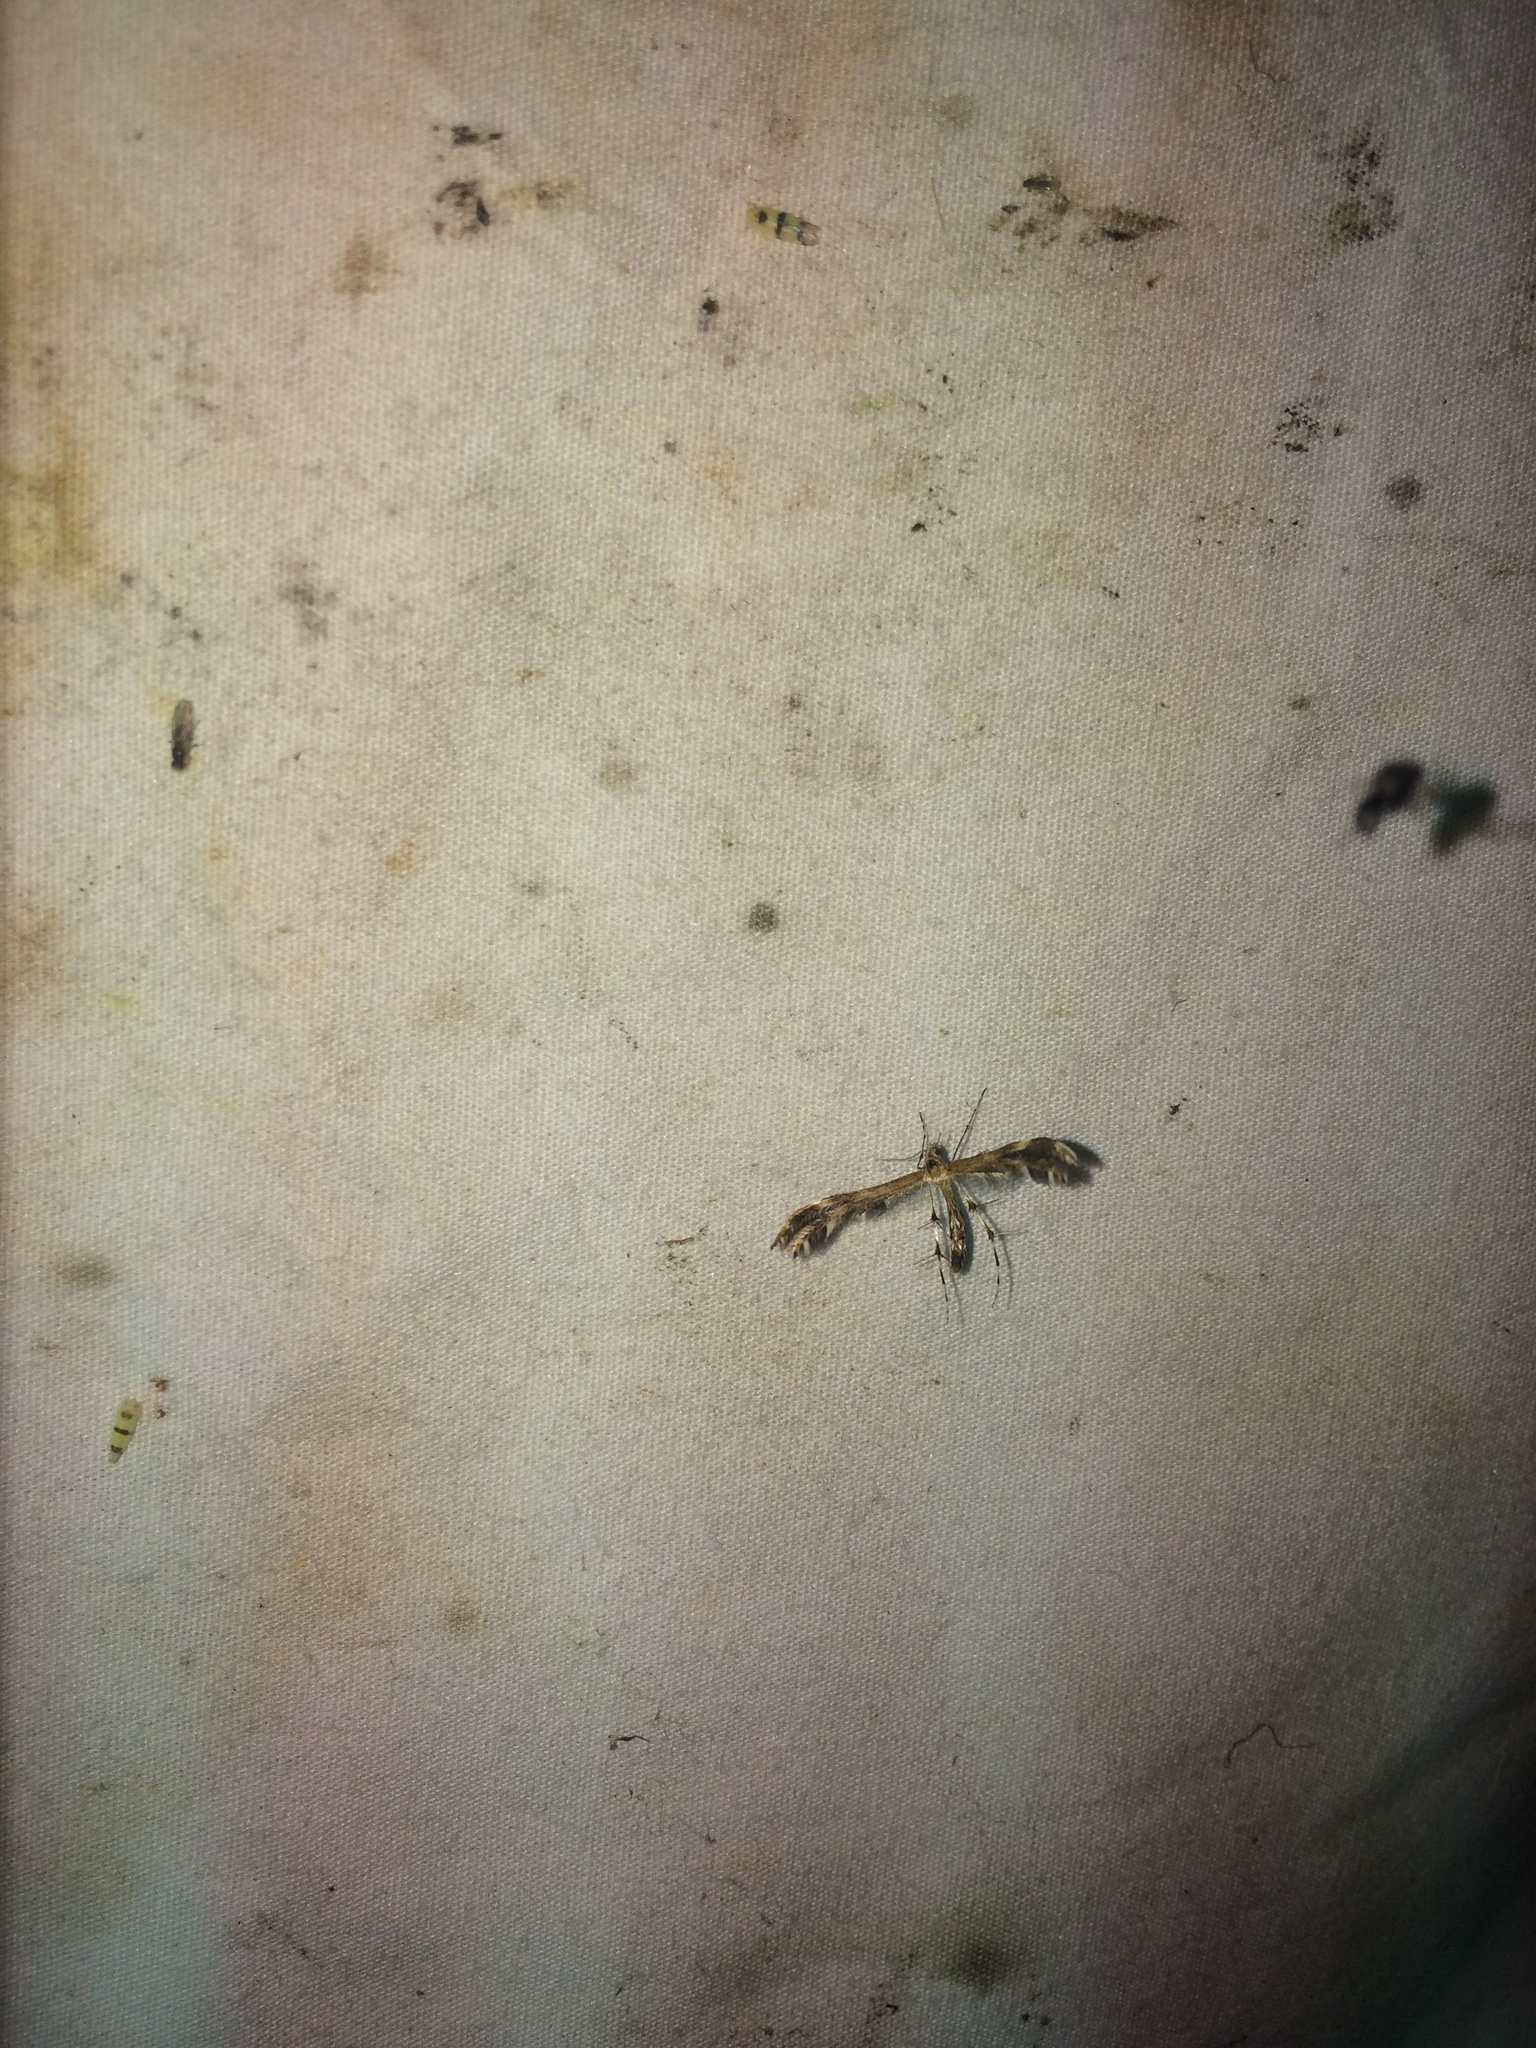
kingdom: Animalia
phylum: Arthropoda
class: Insecta
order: Lepidoptera
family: Pterophoridae
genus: Dejongia
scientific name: Dejongia lobidactylus
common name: Lobed plume moth
